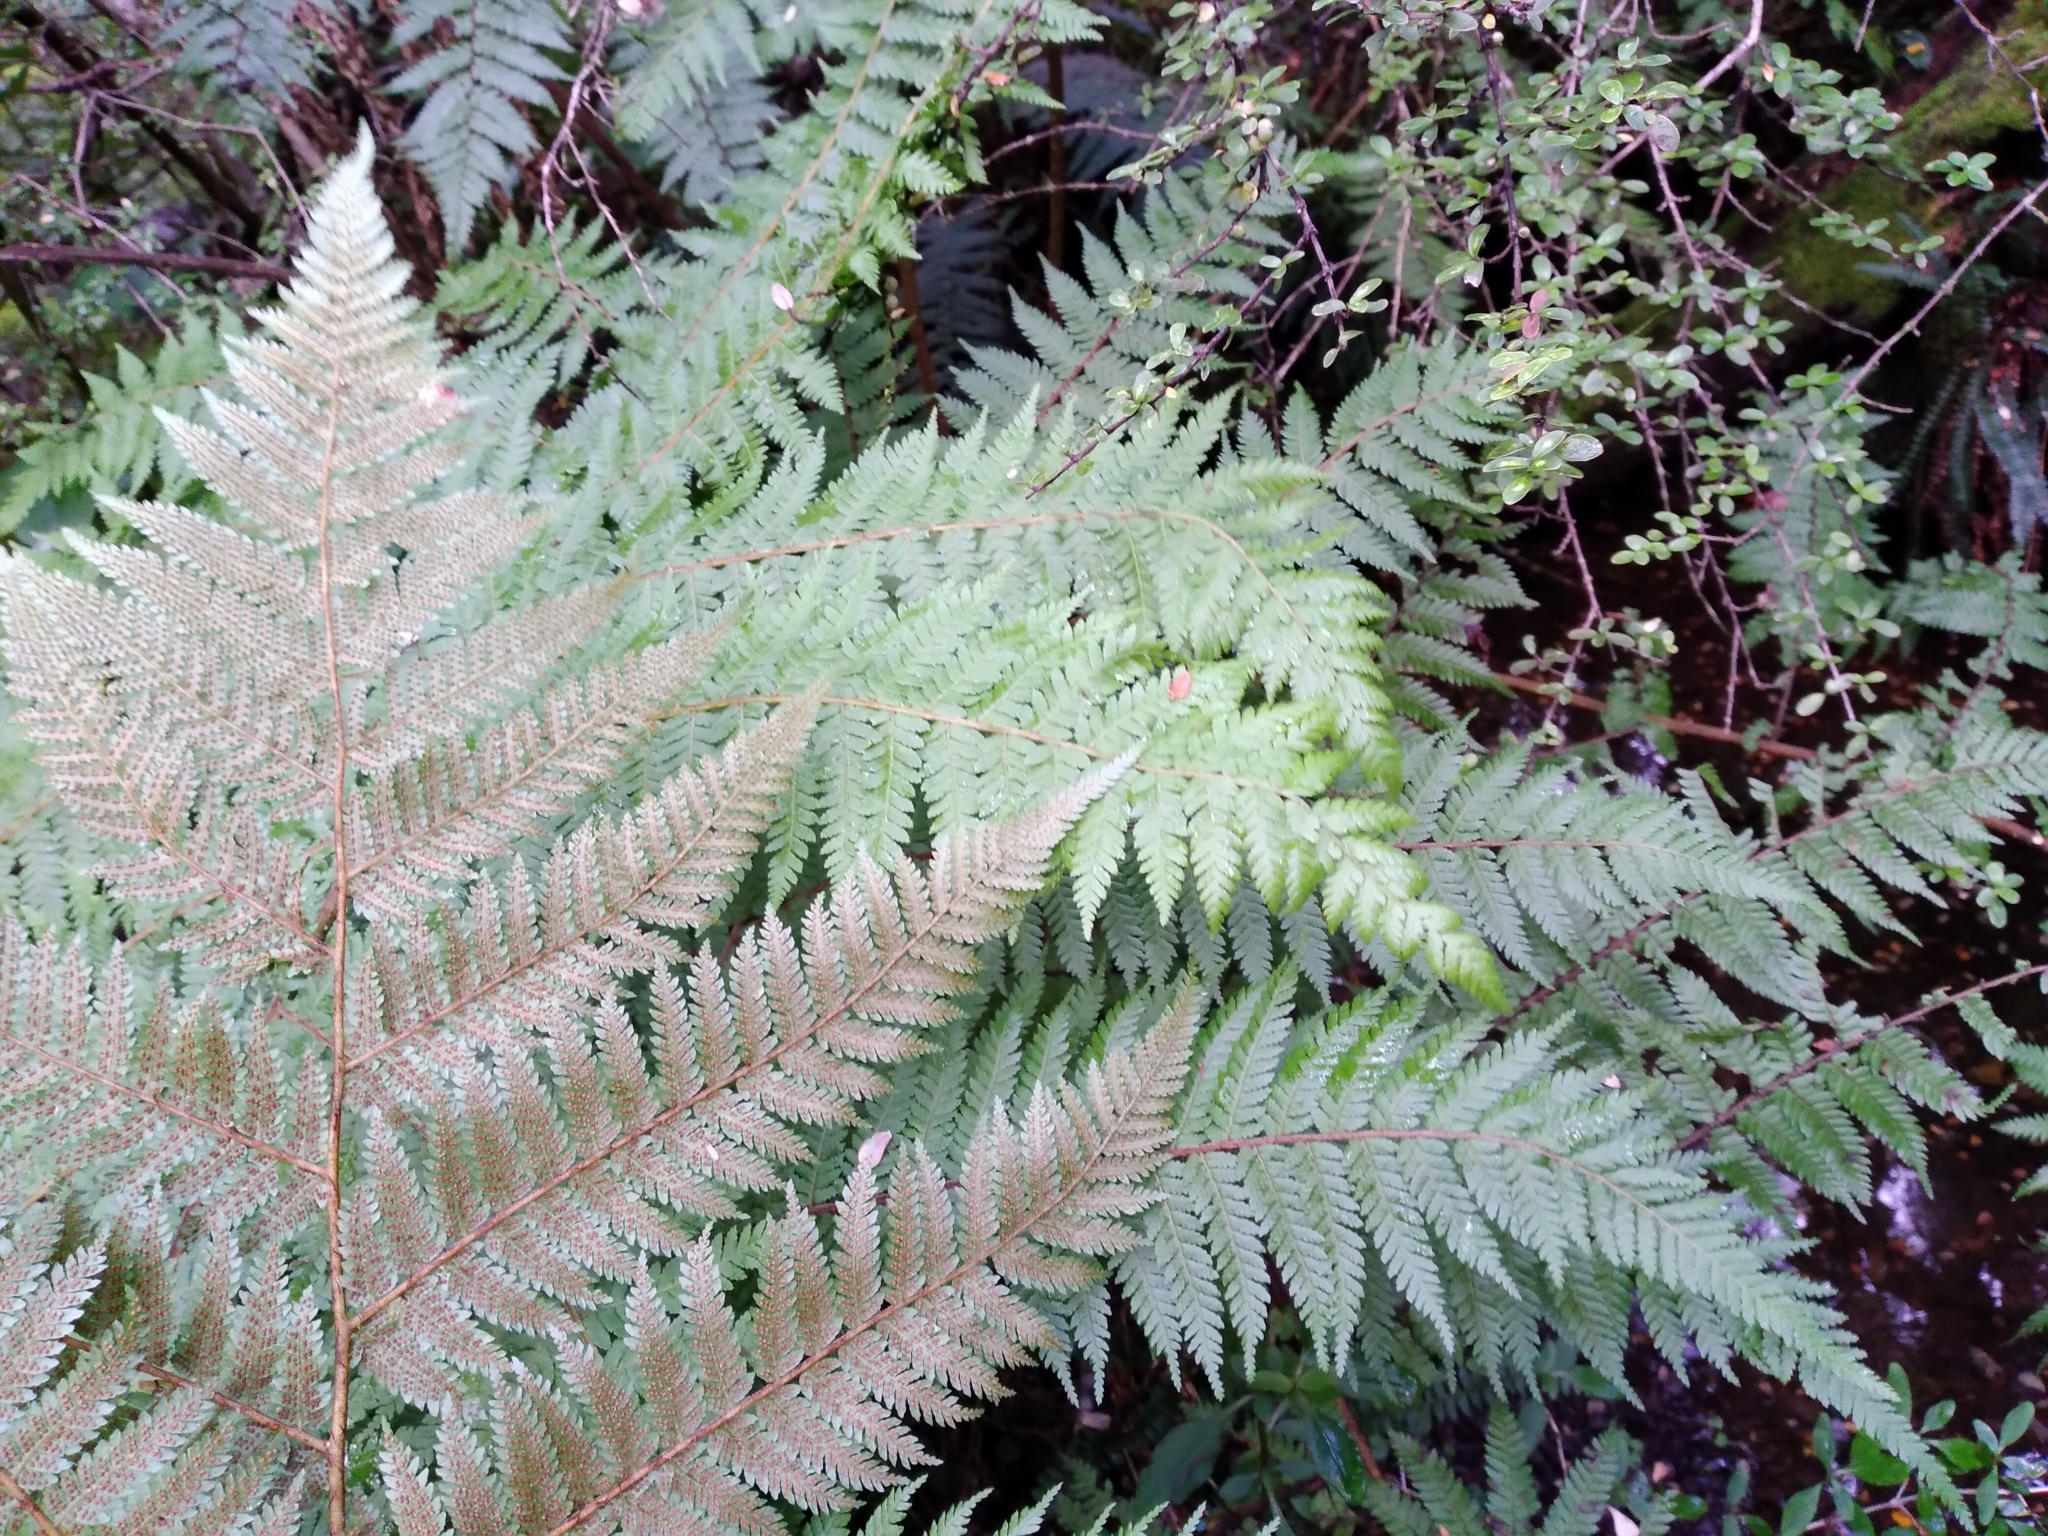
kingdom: Plantae
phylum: Tracheophyta
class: Polypodiopsida
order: Cyatheales
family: Cyatheaceae
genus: Alsophila
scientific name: Alsophila colensoi
